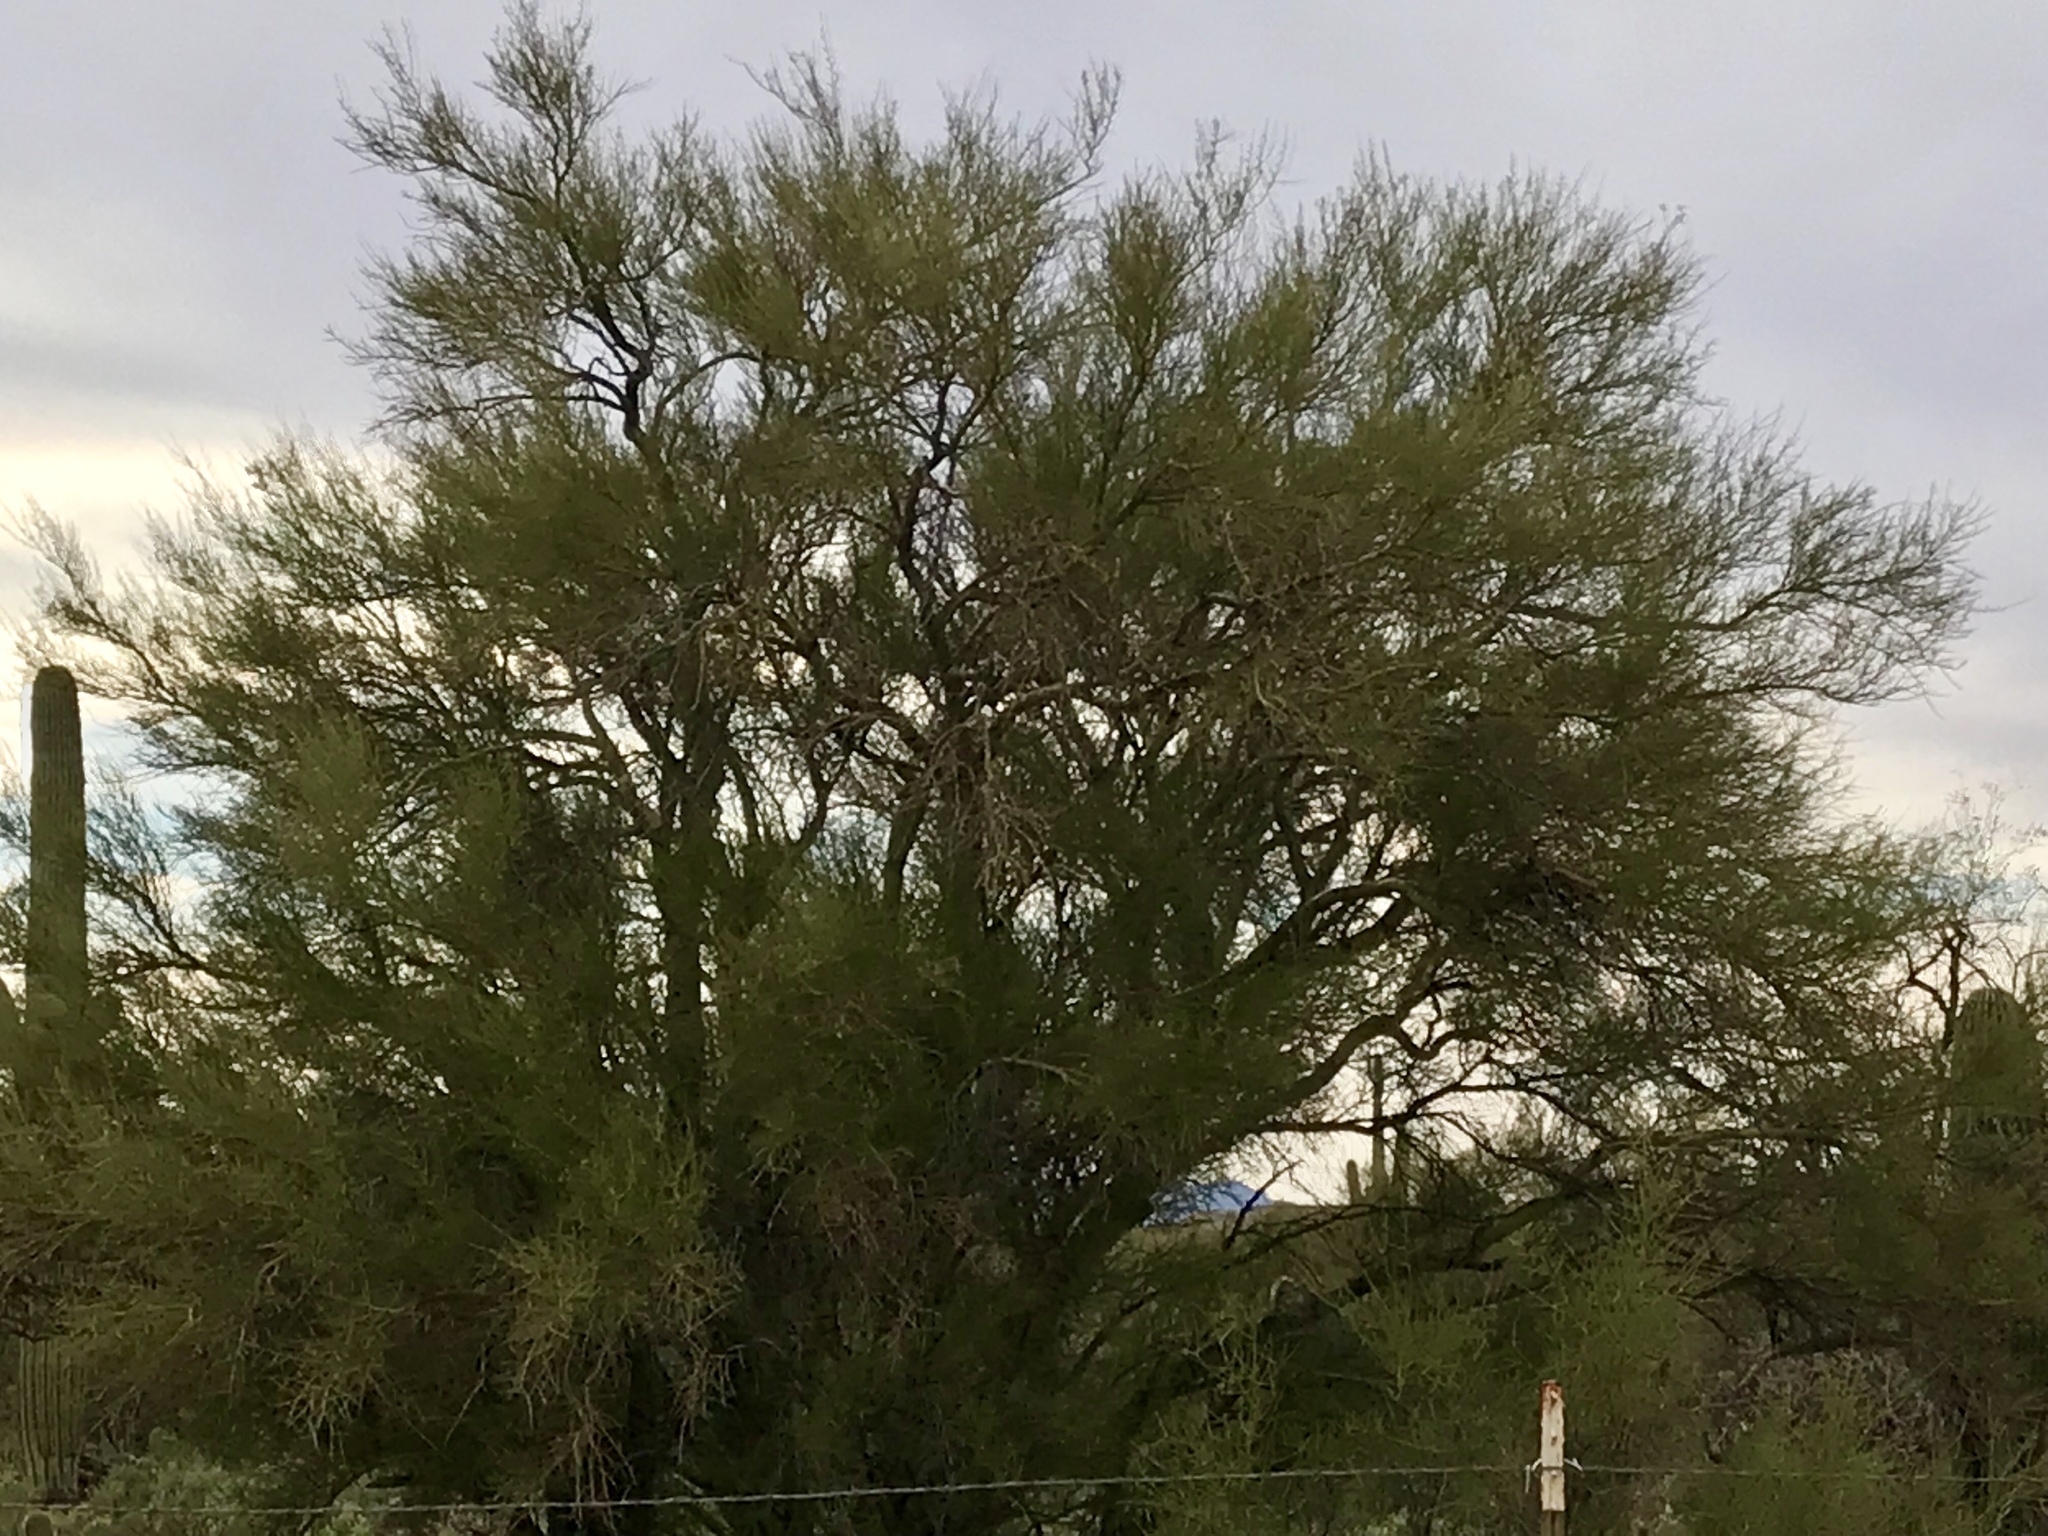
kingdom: Plantae
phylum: Tracheophyta
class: Magnoliopsida
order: Fabales
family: Fabaceae
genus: Parkinsonia
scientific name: Parkinsonia microphylla
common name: Yellow paloverde
